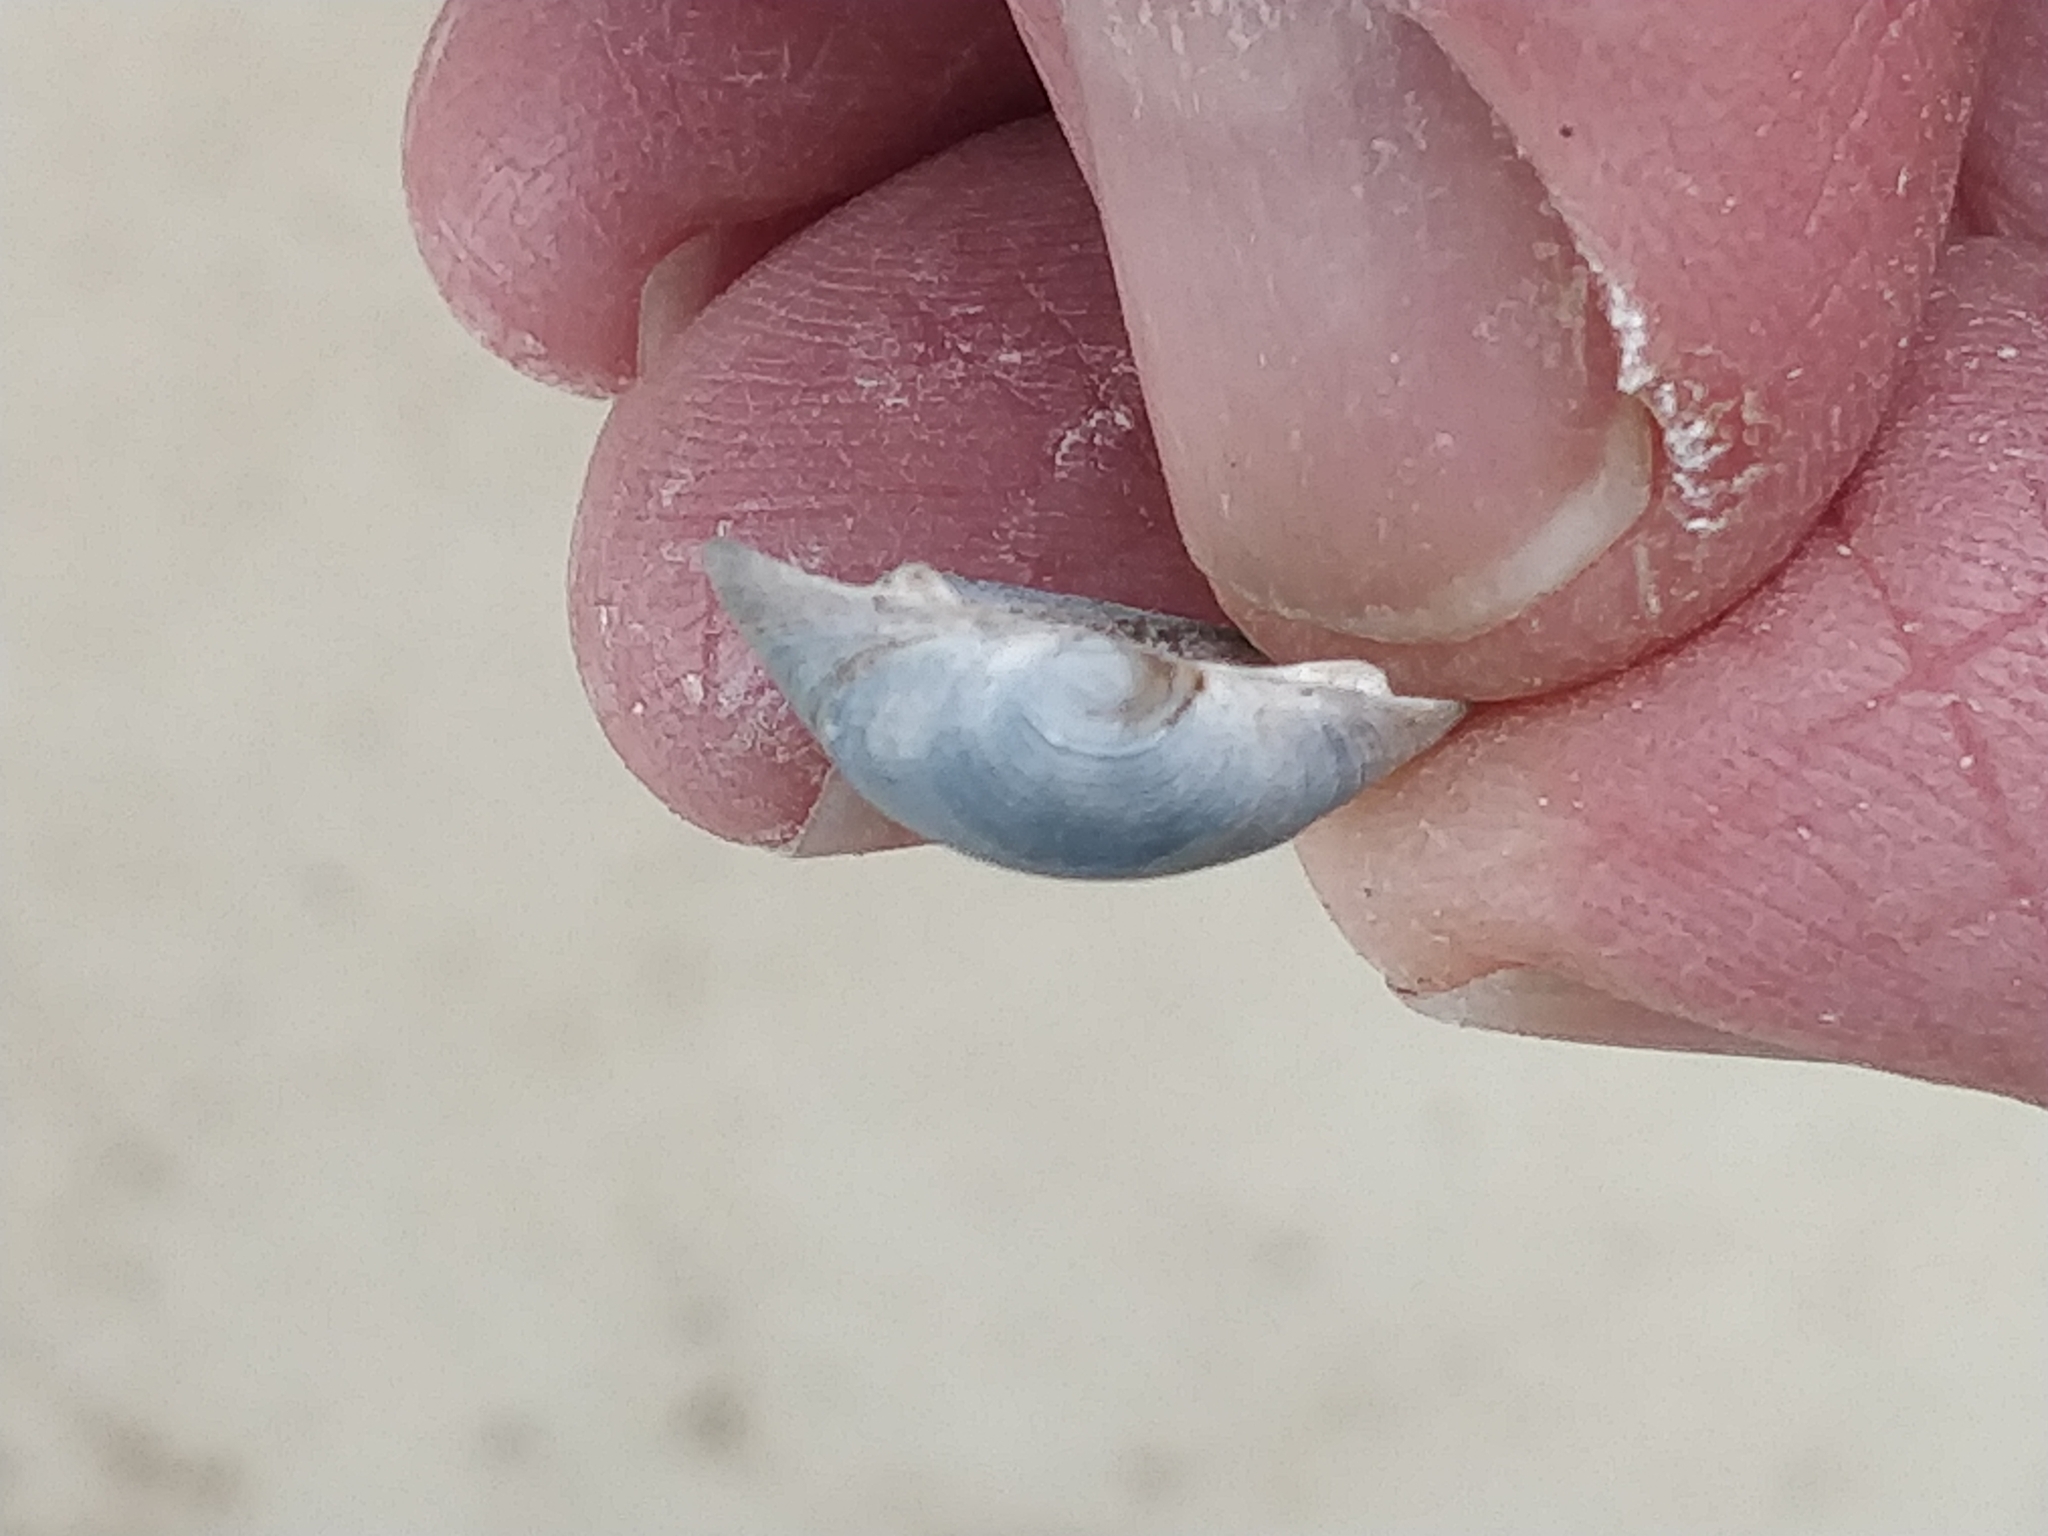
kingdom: Animalia
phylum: Mollusca
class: Bivalvia
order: Sphaeriida
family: Sphaeriidae
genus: Sphaerium
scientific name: Sphaerium striatinum
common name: Striated fingernailclam
